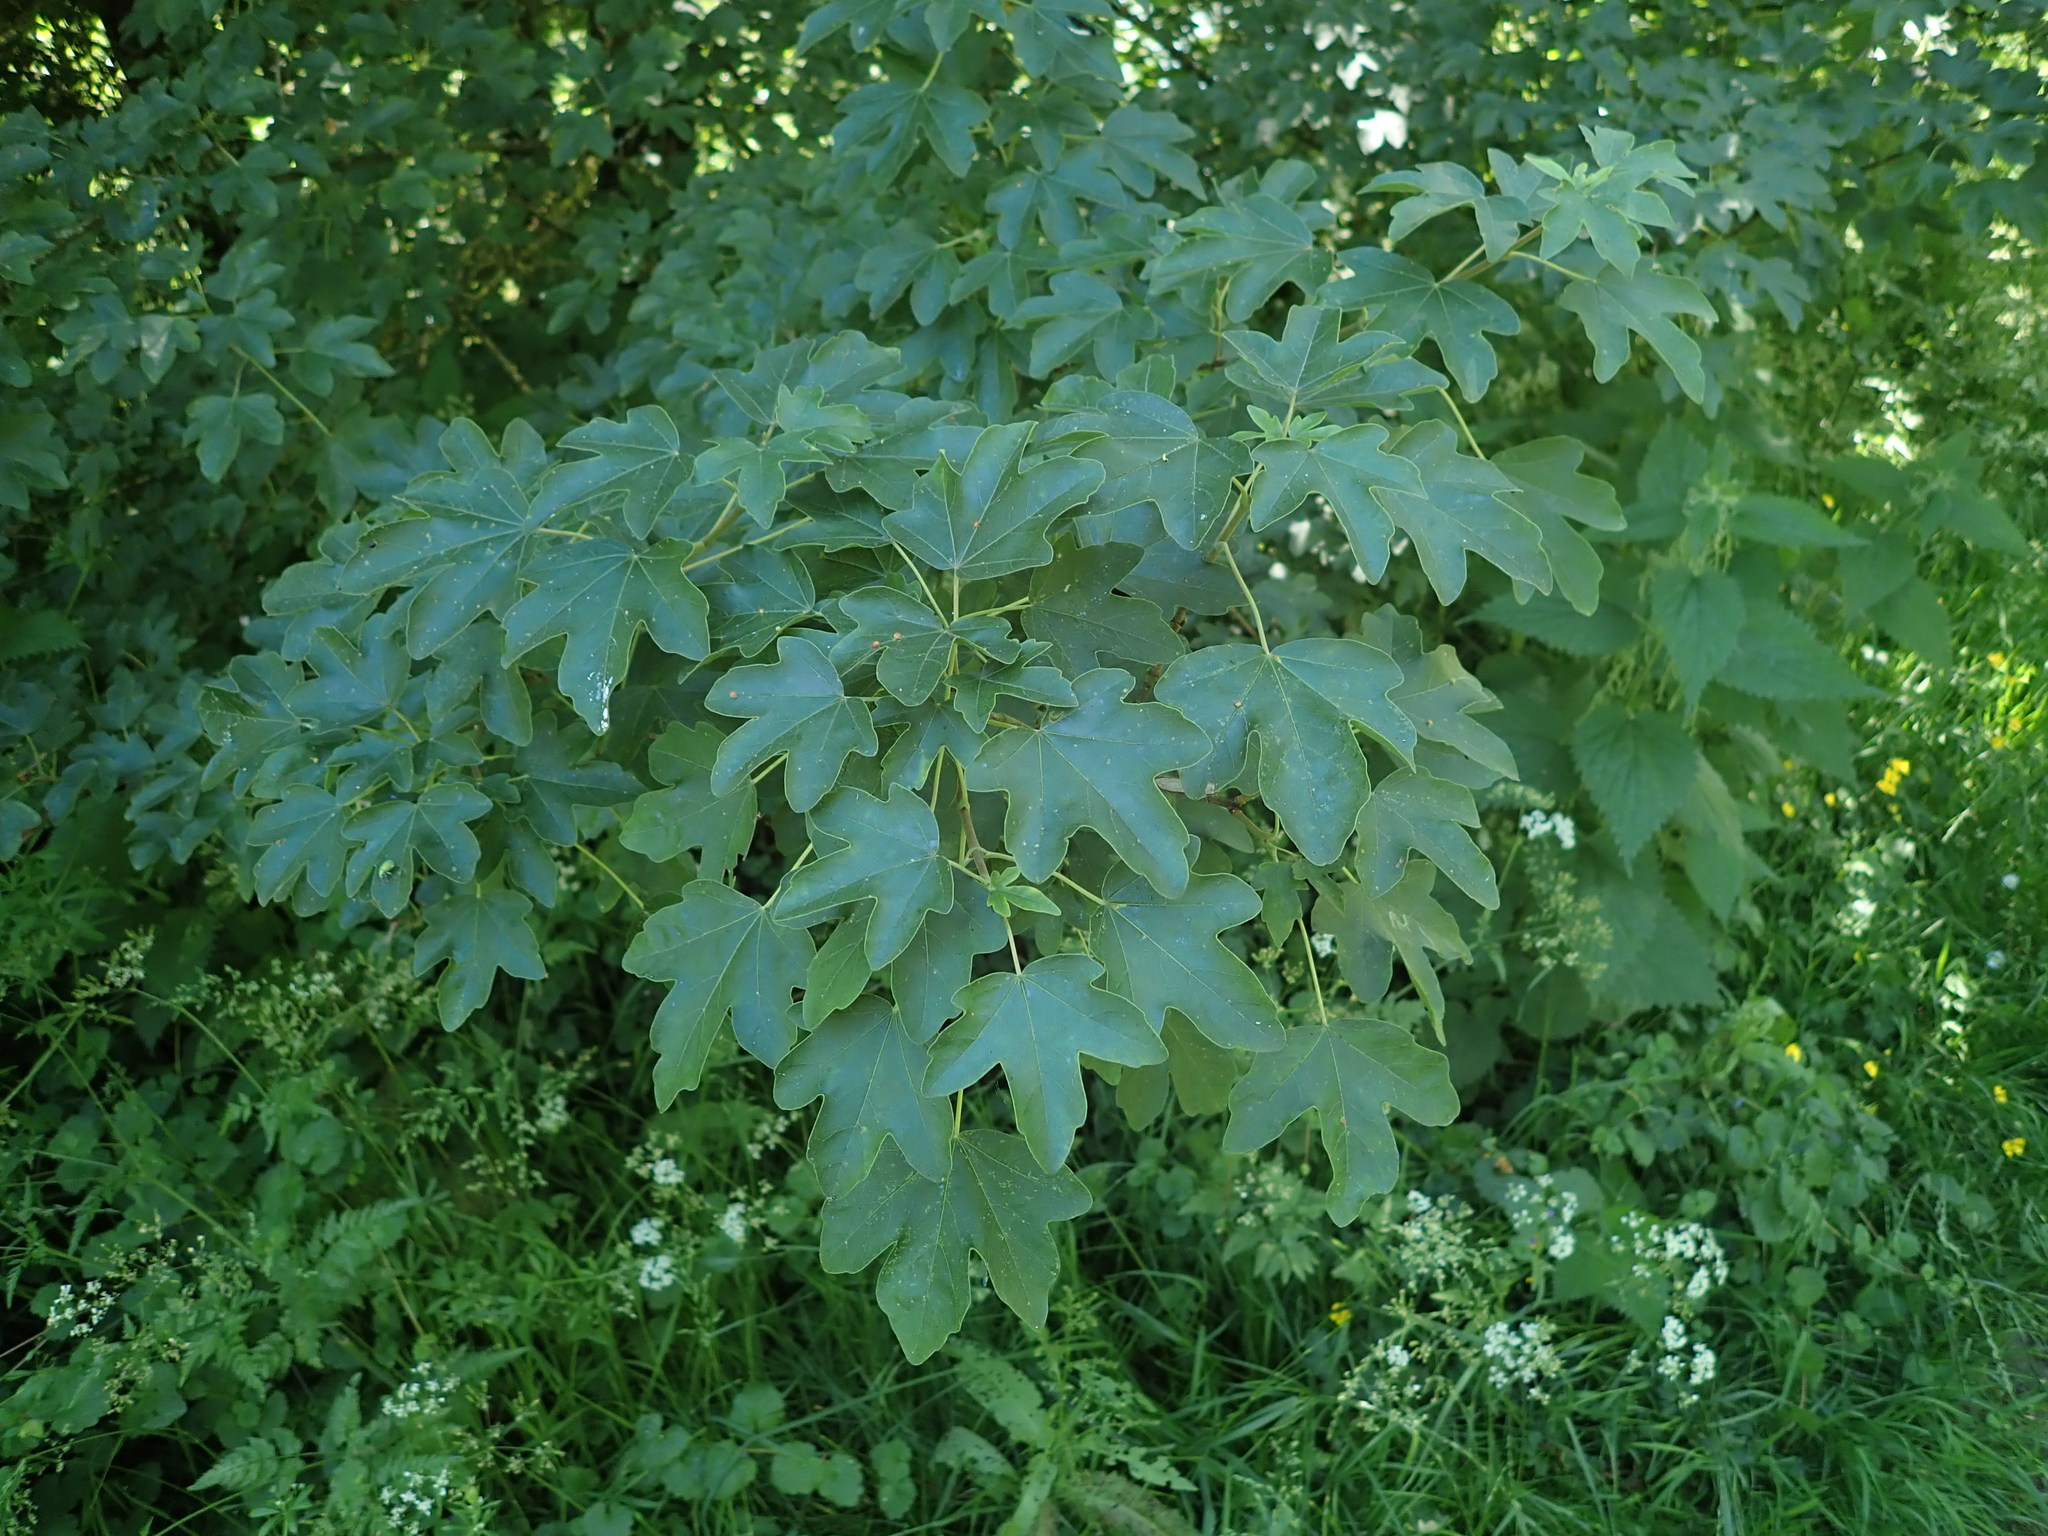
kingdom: Plantae
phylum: Tracheophyta
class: Magnoliopsida
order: Sapindales
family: Sapindaceae
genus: Acer
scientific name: Acer campestre
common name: Field maple
